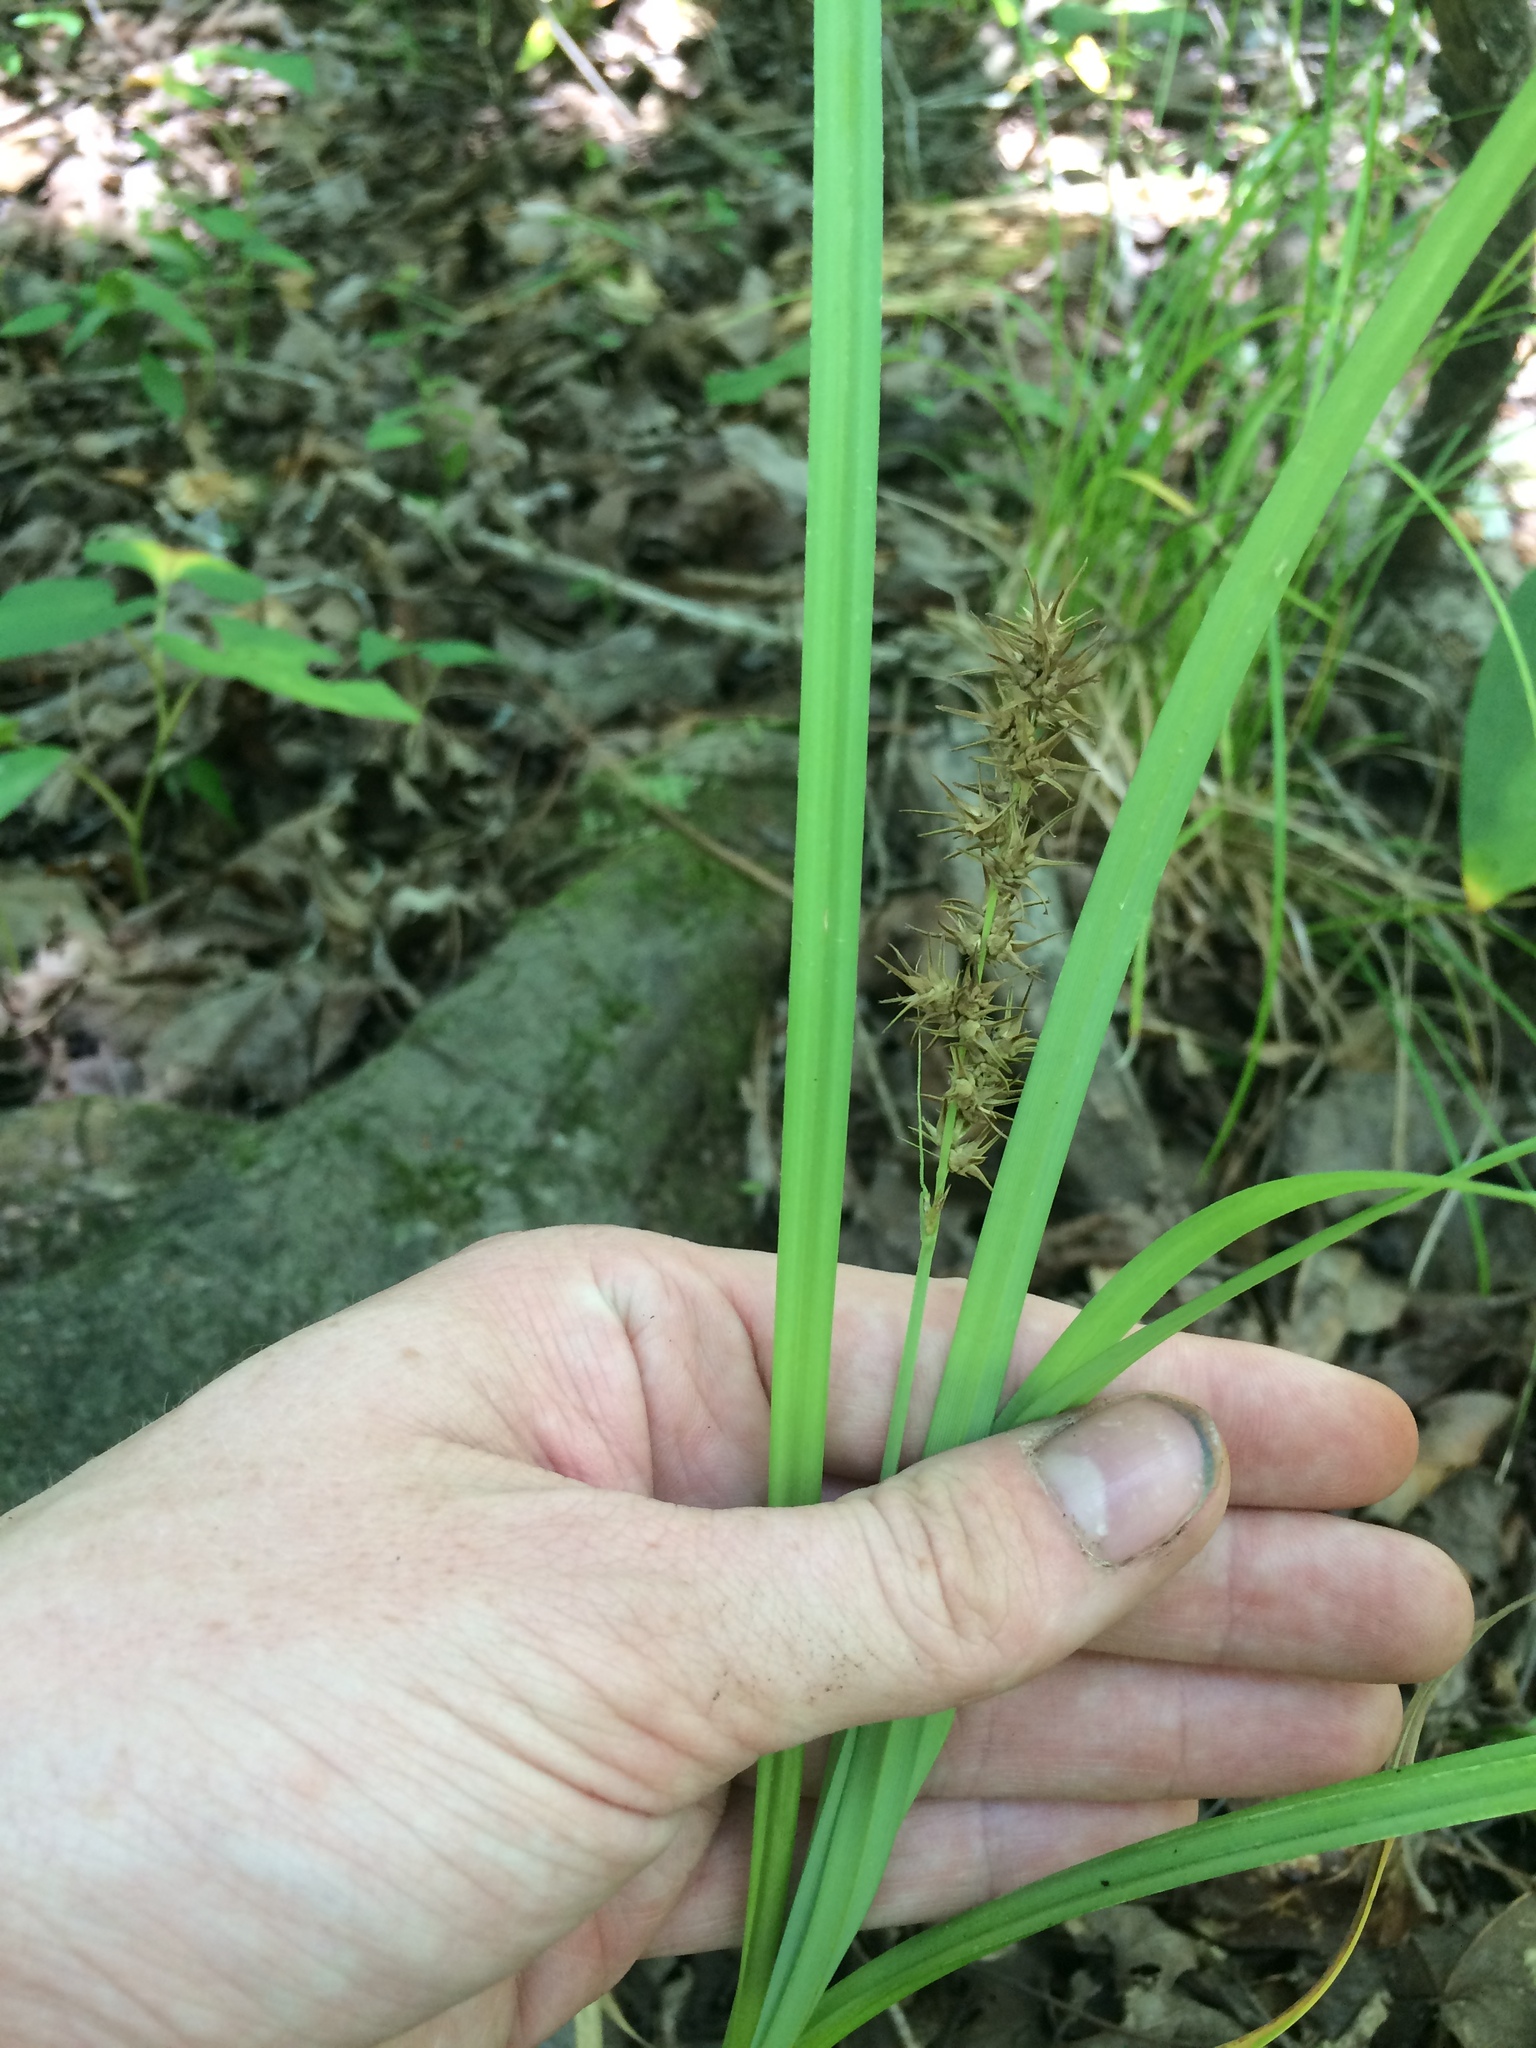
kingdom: Plantae
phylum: Tracheophyta
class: Liliopsida
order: Poales
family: Cyperaceae
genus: Carex
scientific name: Carex crus-corvi
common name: Crow-spur sedge
